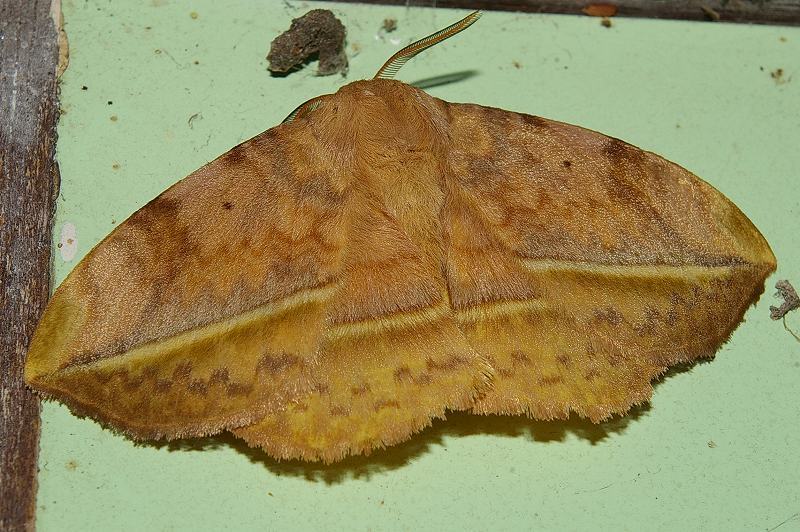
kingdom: Animalia
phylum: Arthropoda
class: Insecta
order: Lepidoptera
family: Eupterotidae
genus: Apha
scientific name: Apha aequalis
